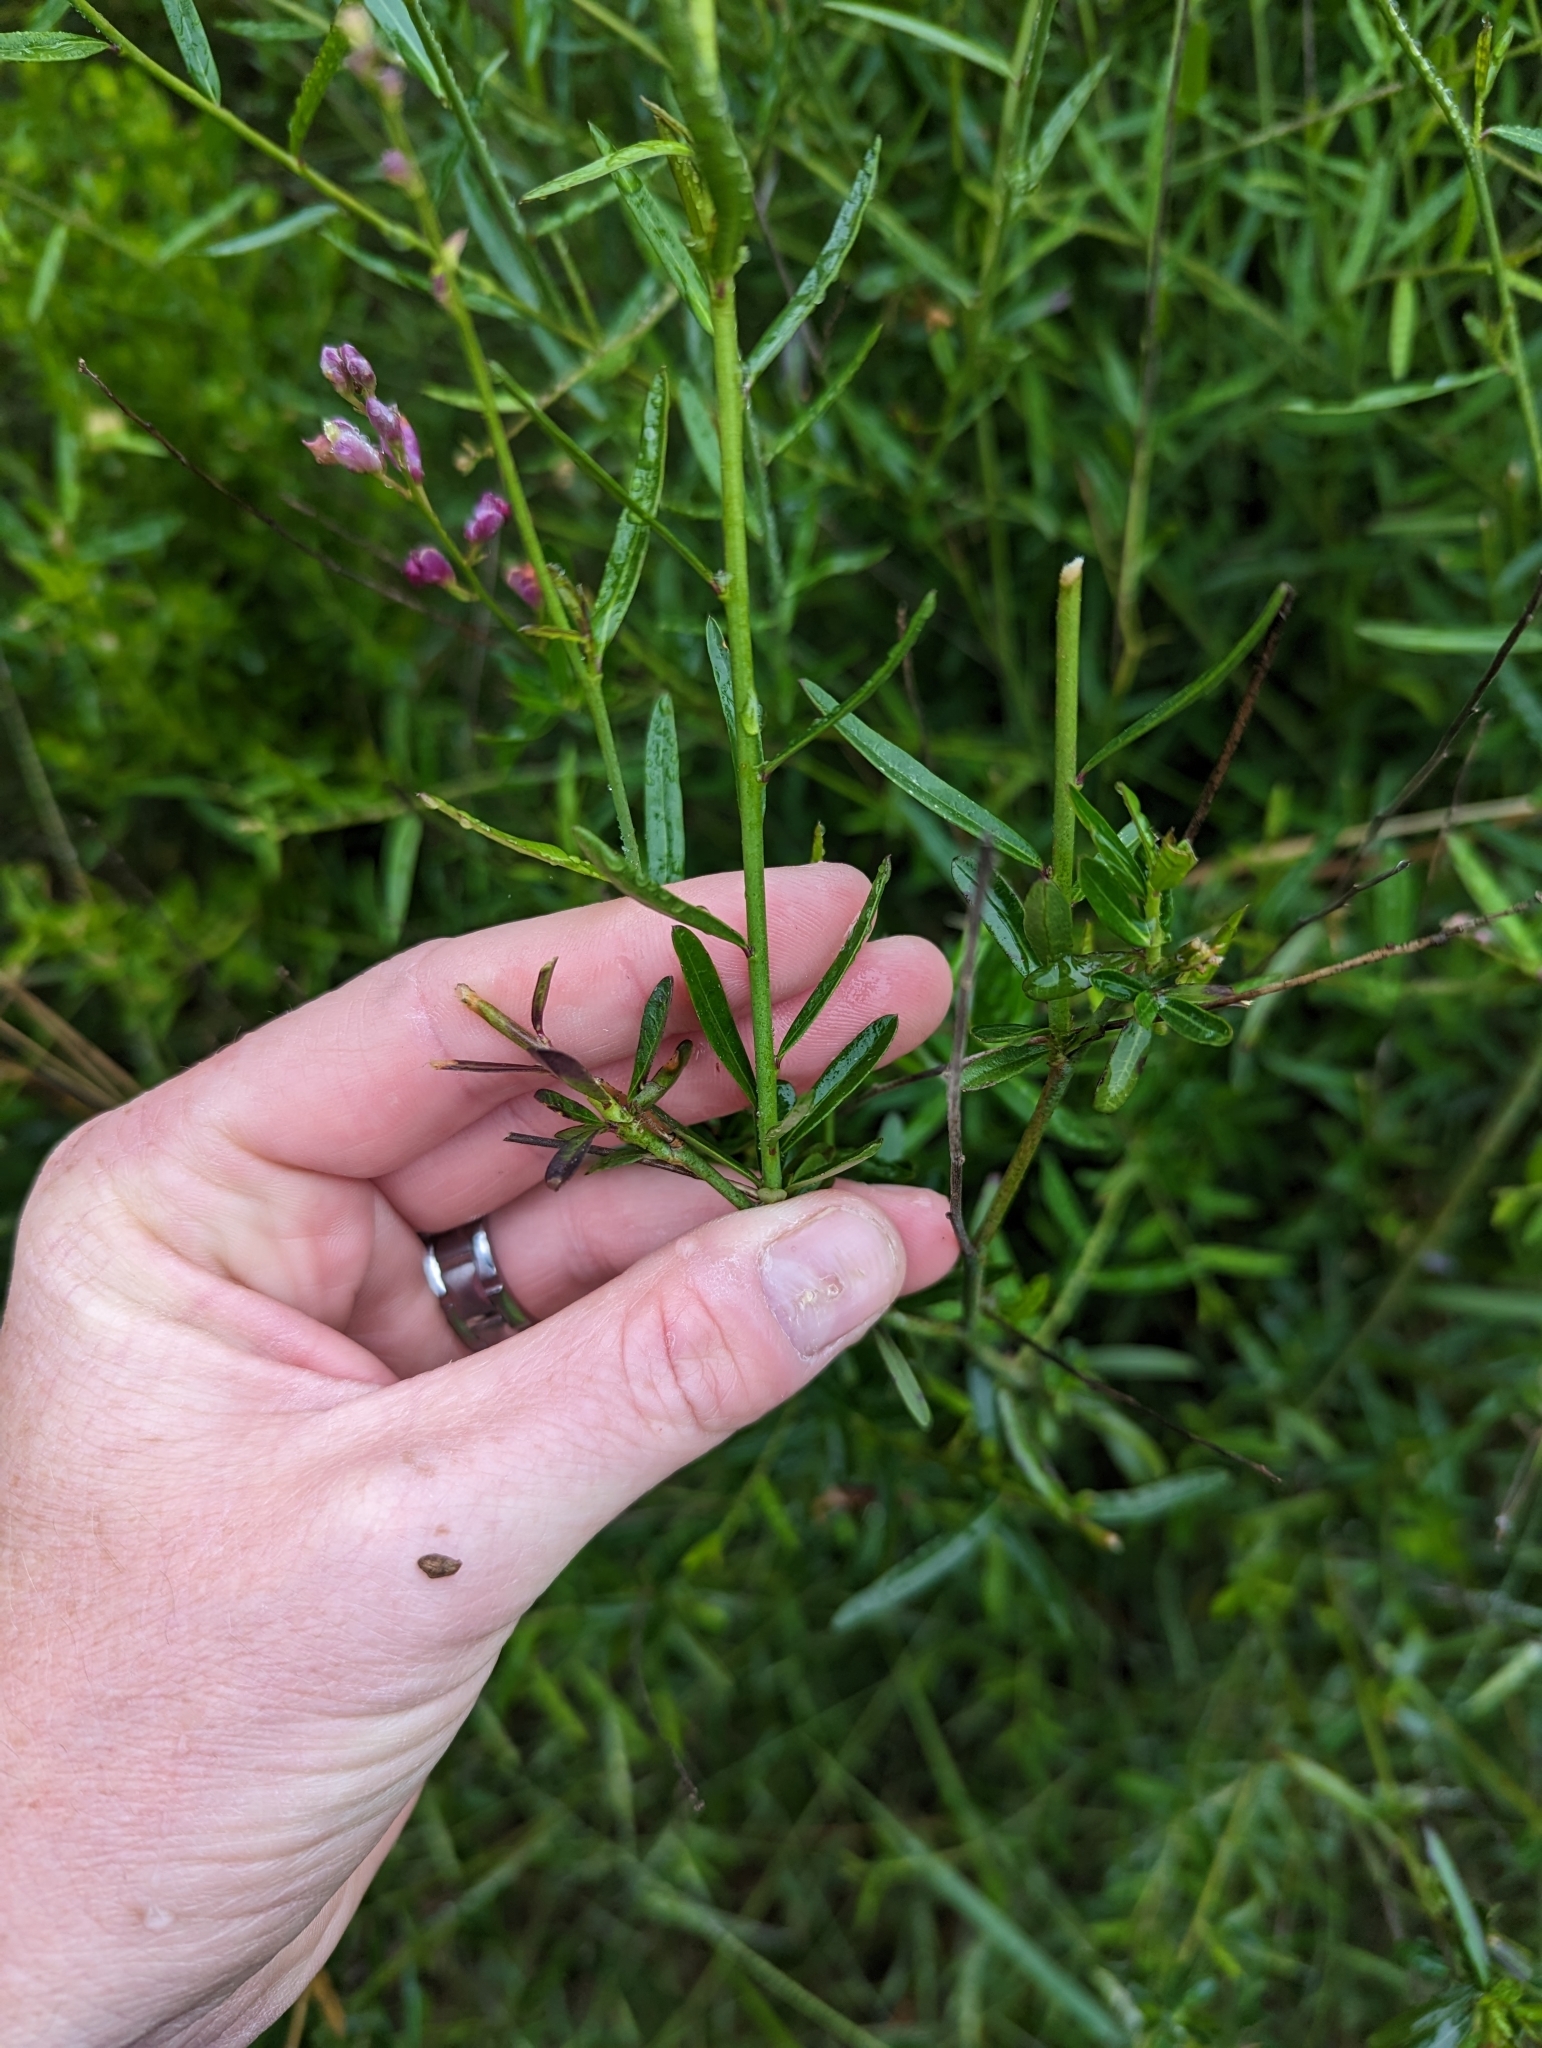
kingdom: Plantae
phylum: Tracheophyta
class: Magnoliopsida
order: Fabales
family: Polygalaceae
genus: Rhinotropis
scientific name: Rhinotropis cornuta
